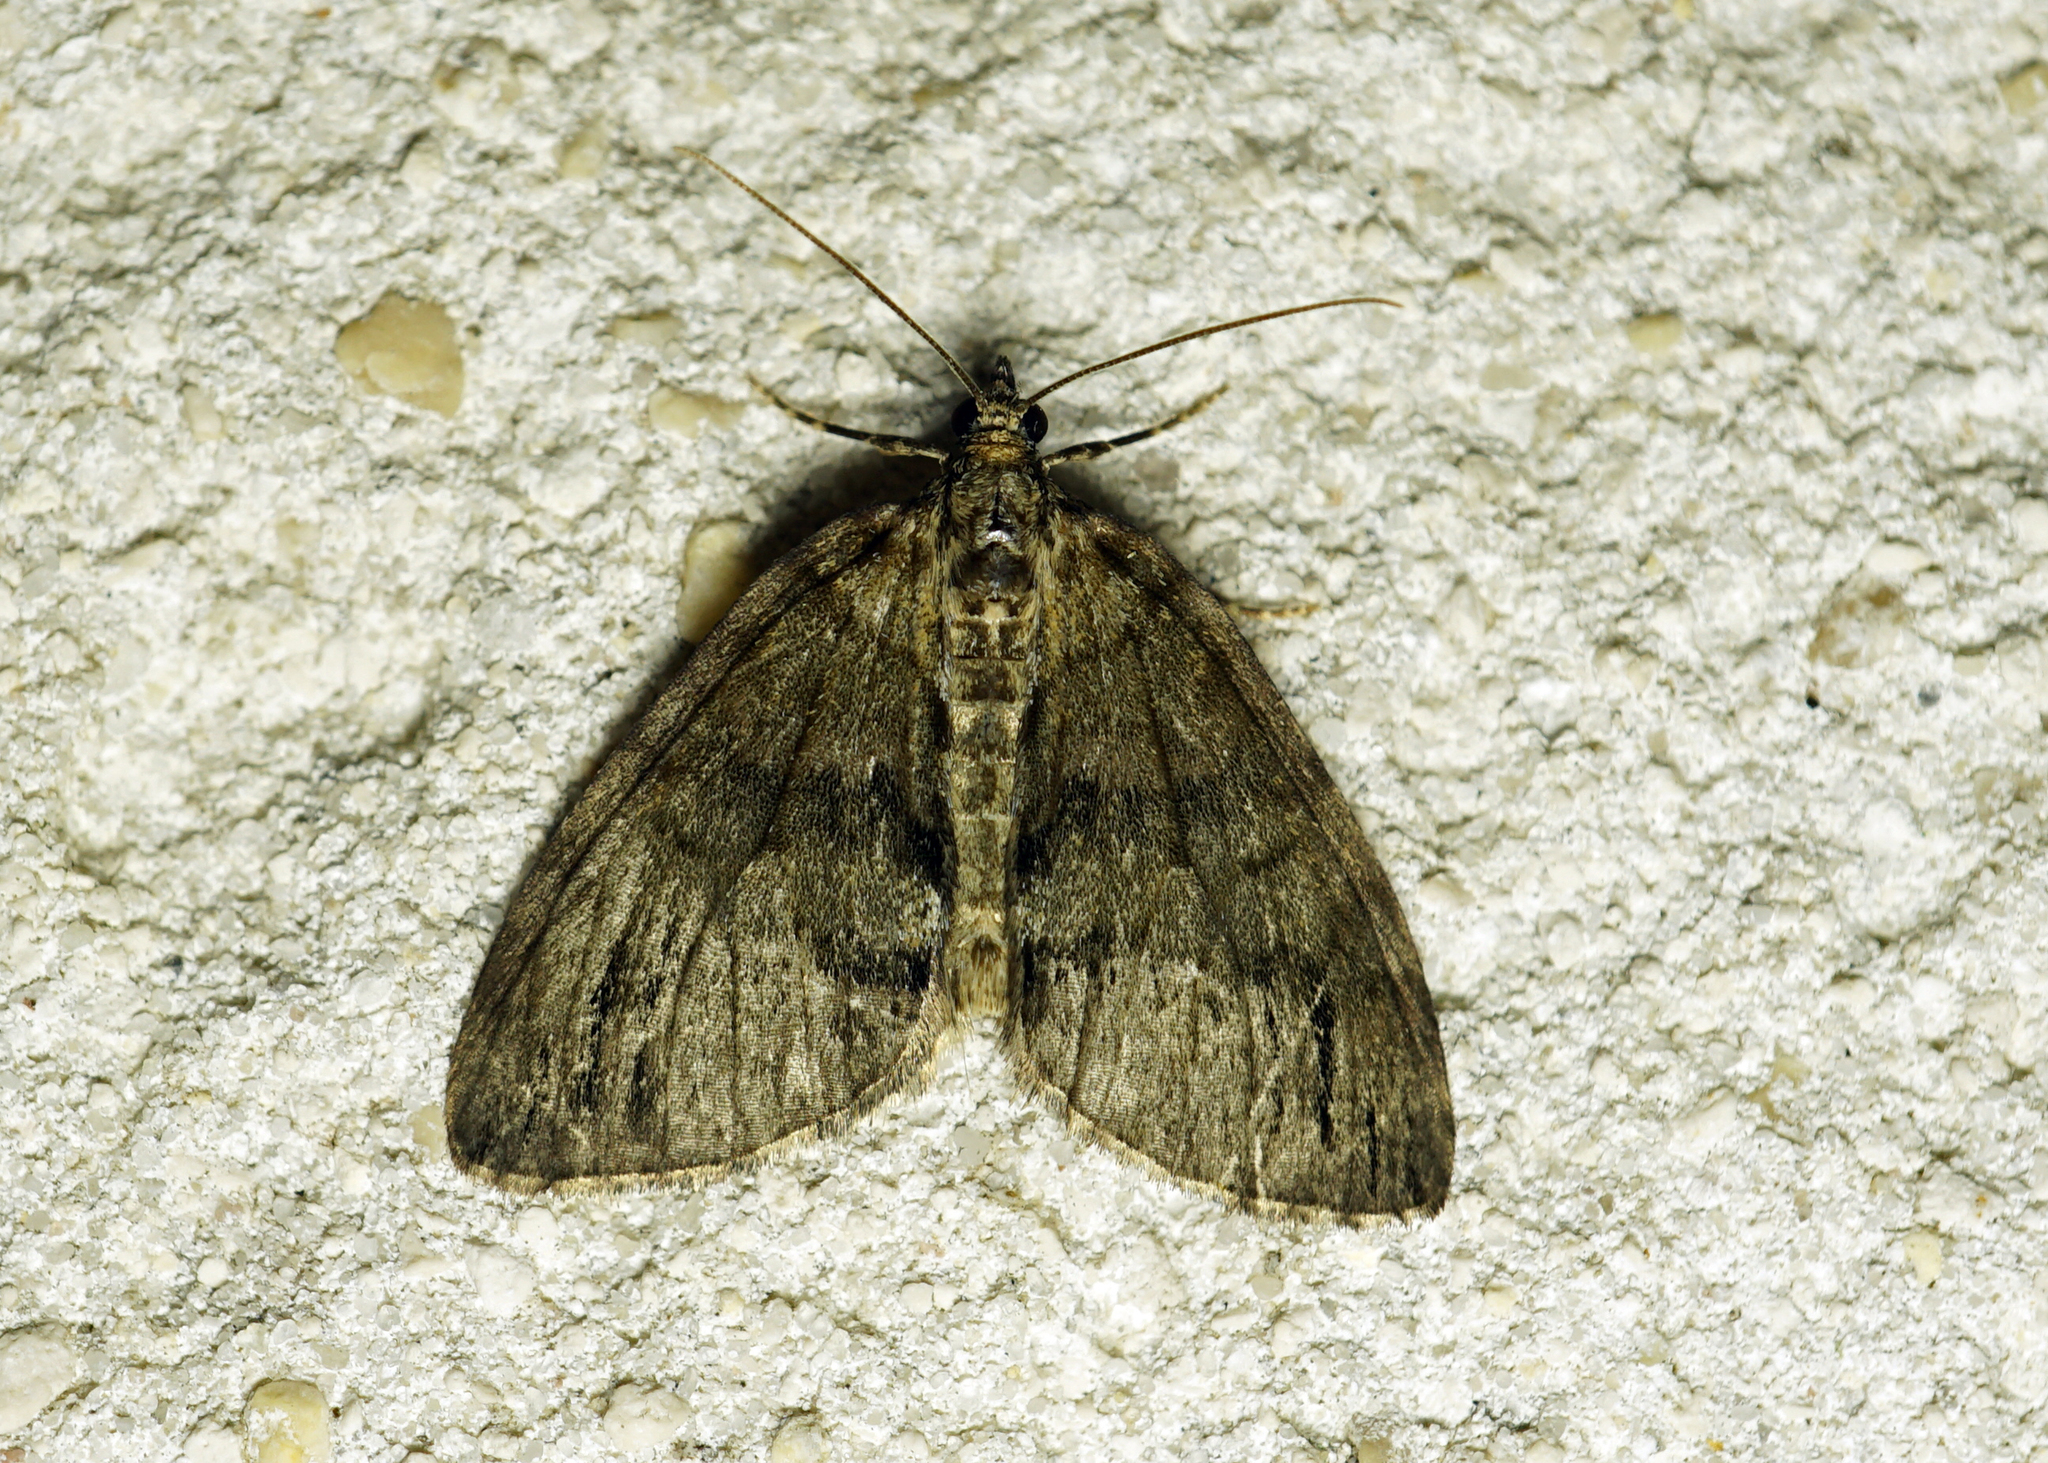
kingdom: Animalia
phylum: Arthropoda
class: Insecta
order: Lepidoptera
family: Geometridae
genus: Hydriomena
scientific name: Hydriomena impluviata
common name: May highflyer
